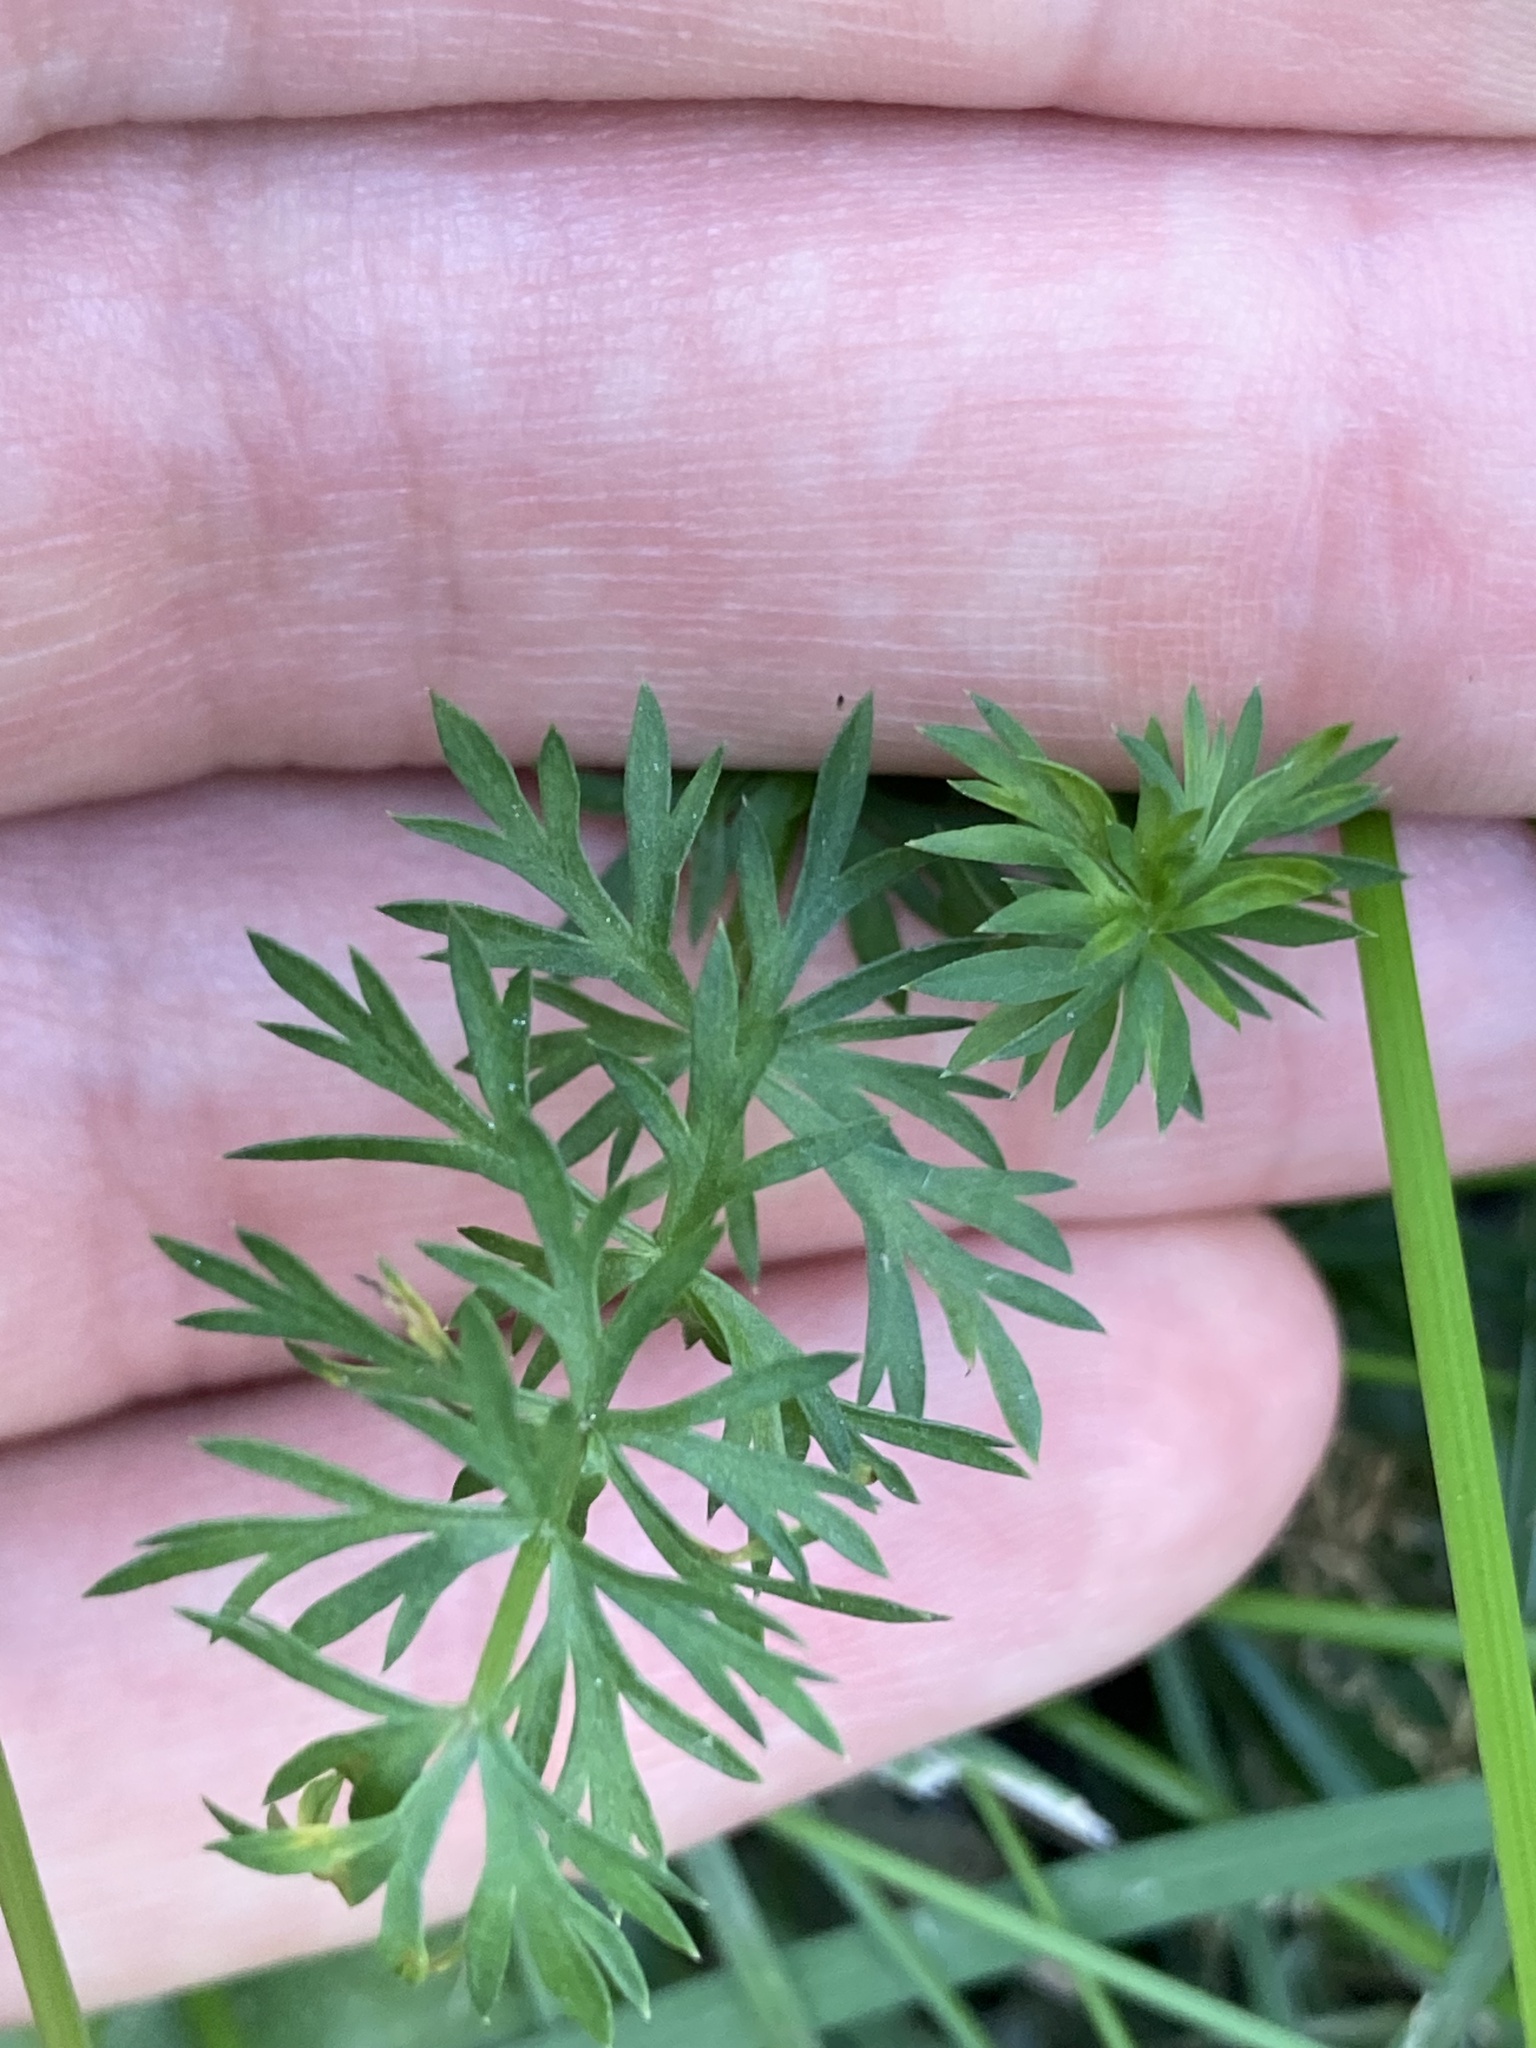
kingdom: Plantae
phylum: Tracheophyta
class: Magnoliopsida
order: Apiales
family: Apiaceae
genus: Carum
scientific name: Carum carvi
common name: Caraway
